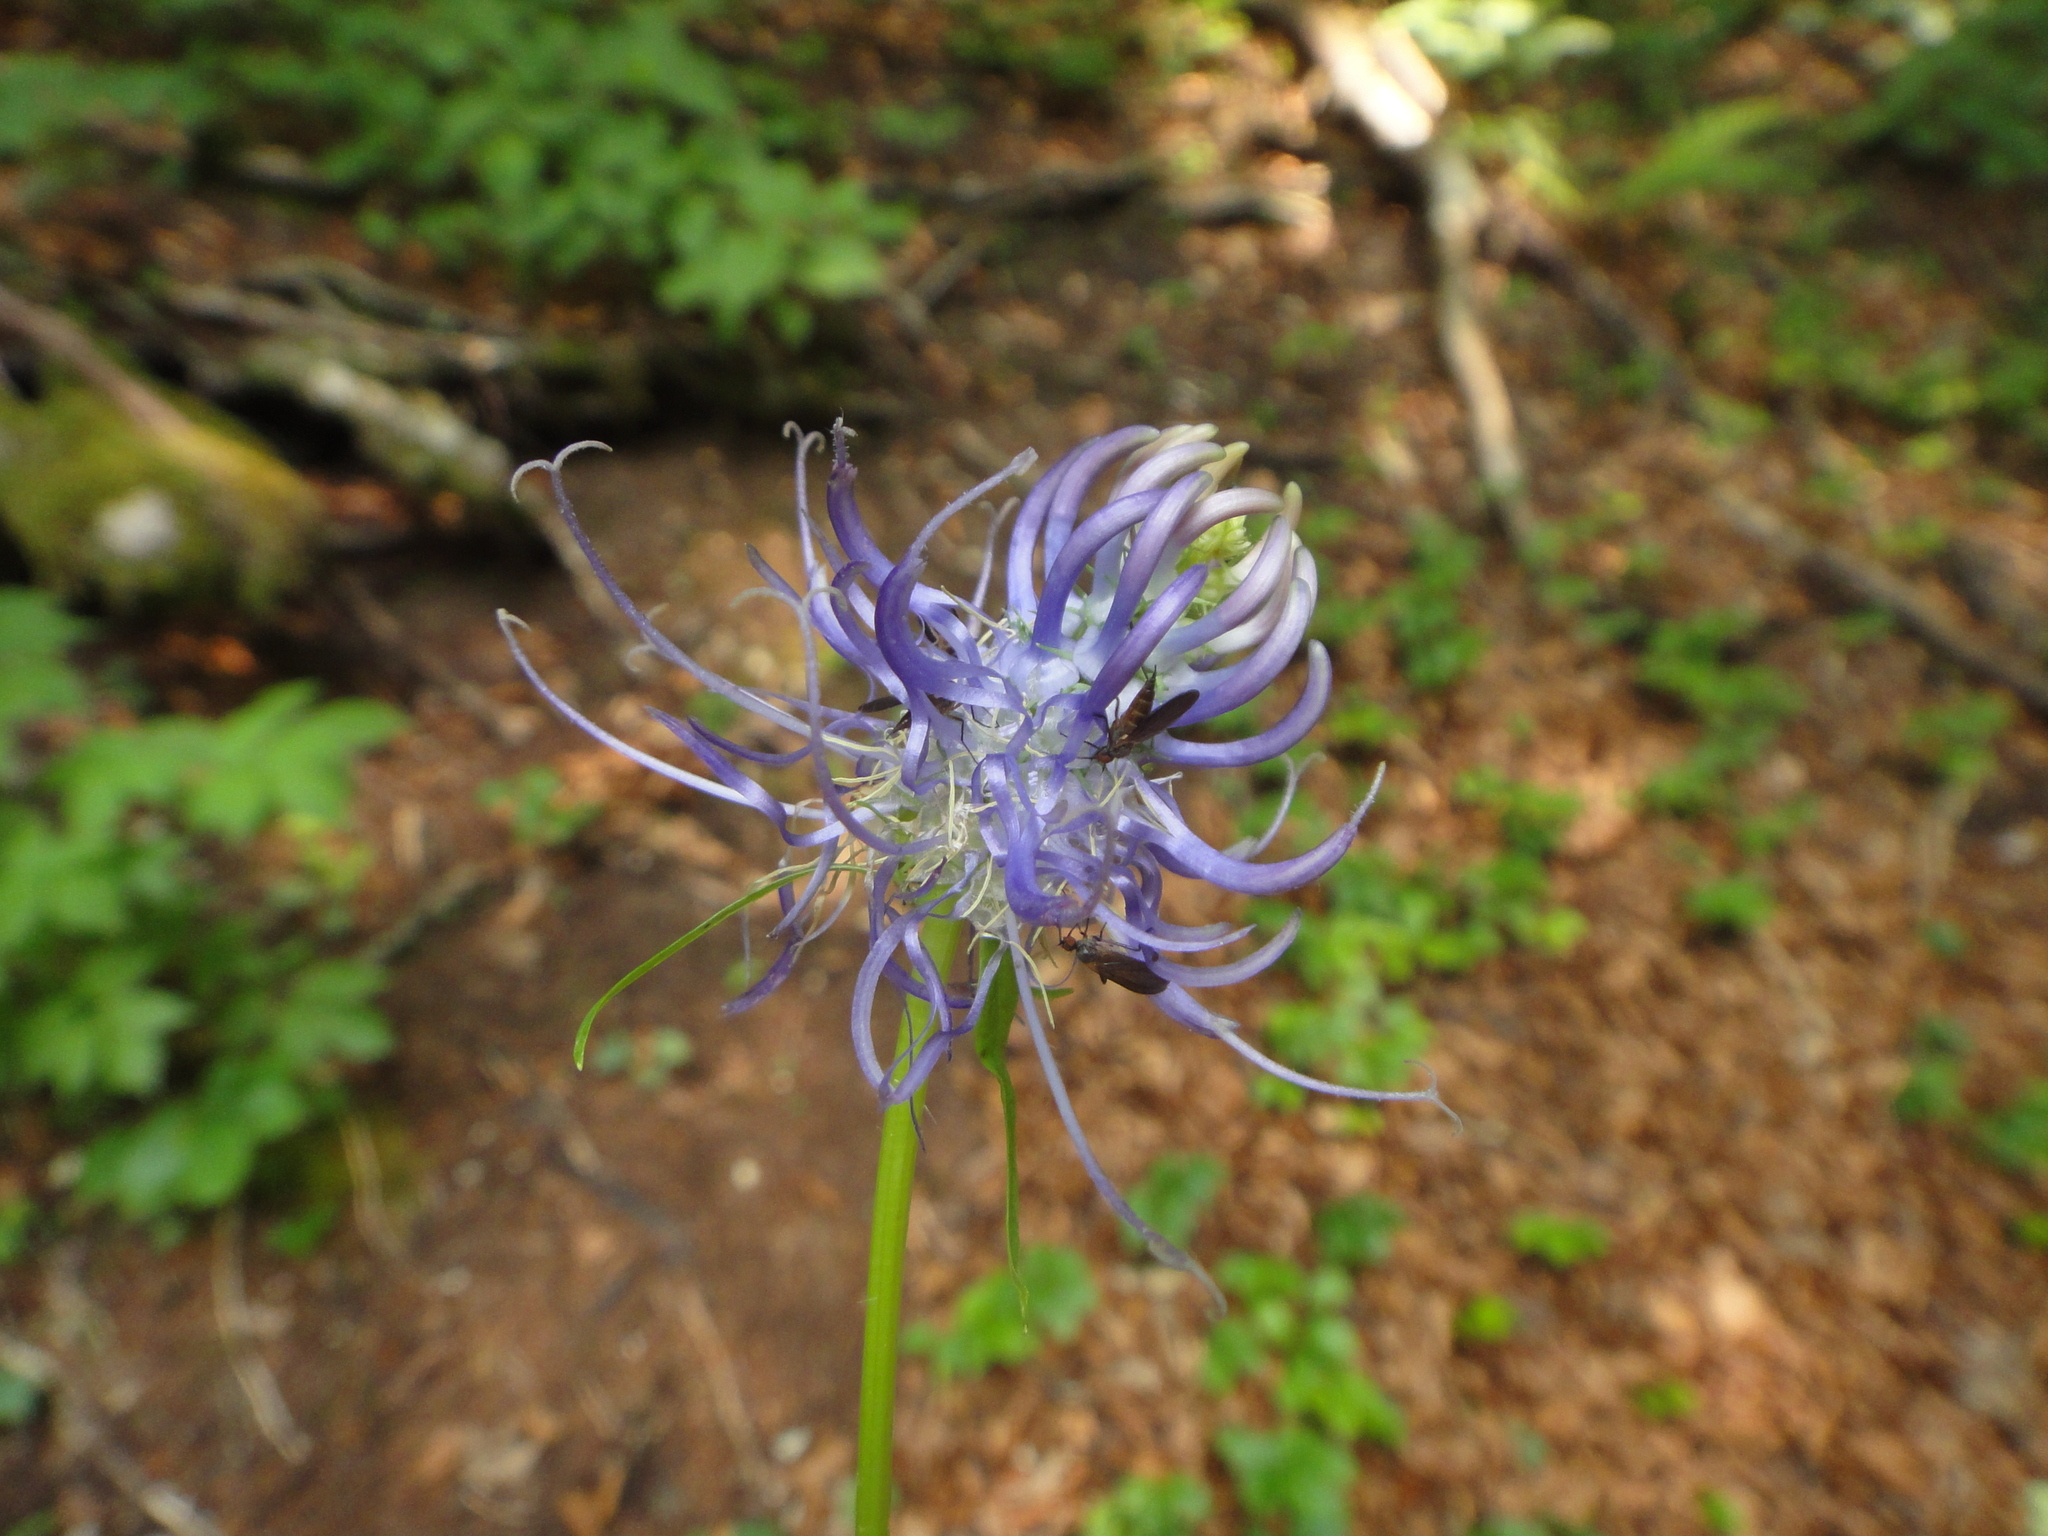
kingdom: Plantae
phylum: Tracheophyta
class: Magnoliopsida
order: Asterales
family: Campanulaceae
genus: Phyteuma
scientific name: Phyteuma spicatum
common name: Spiked rampion
